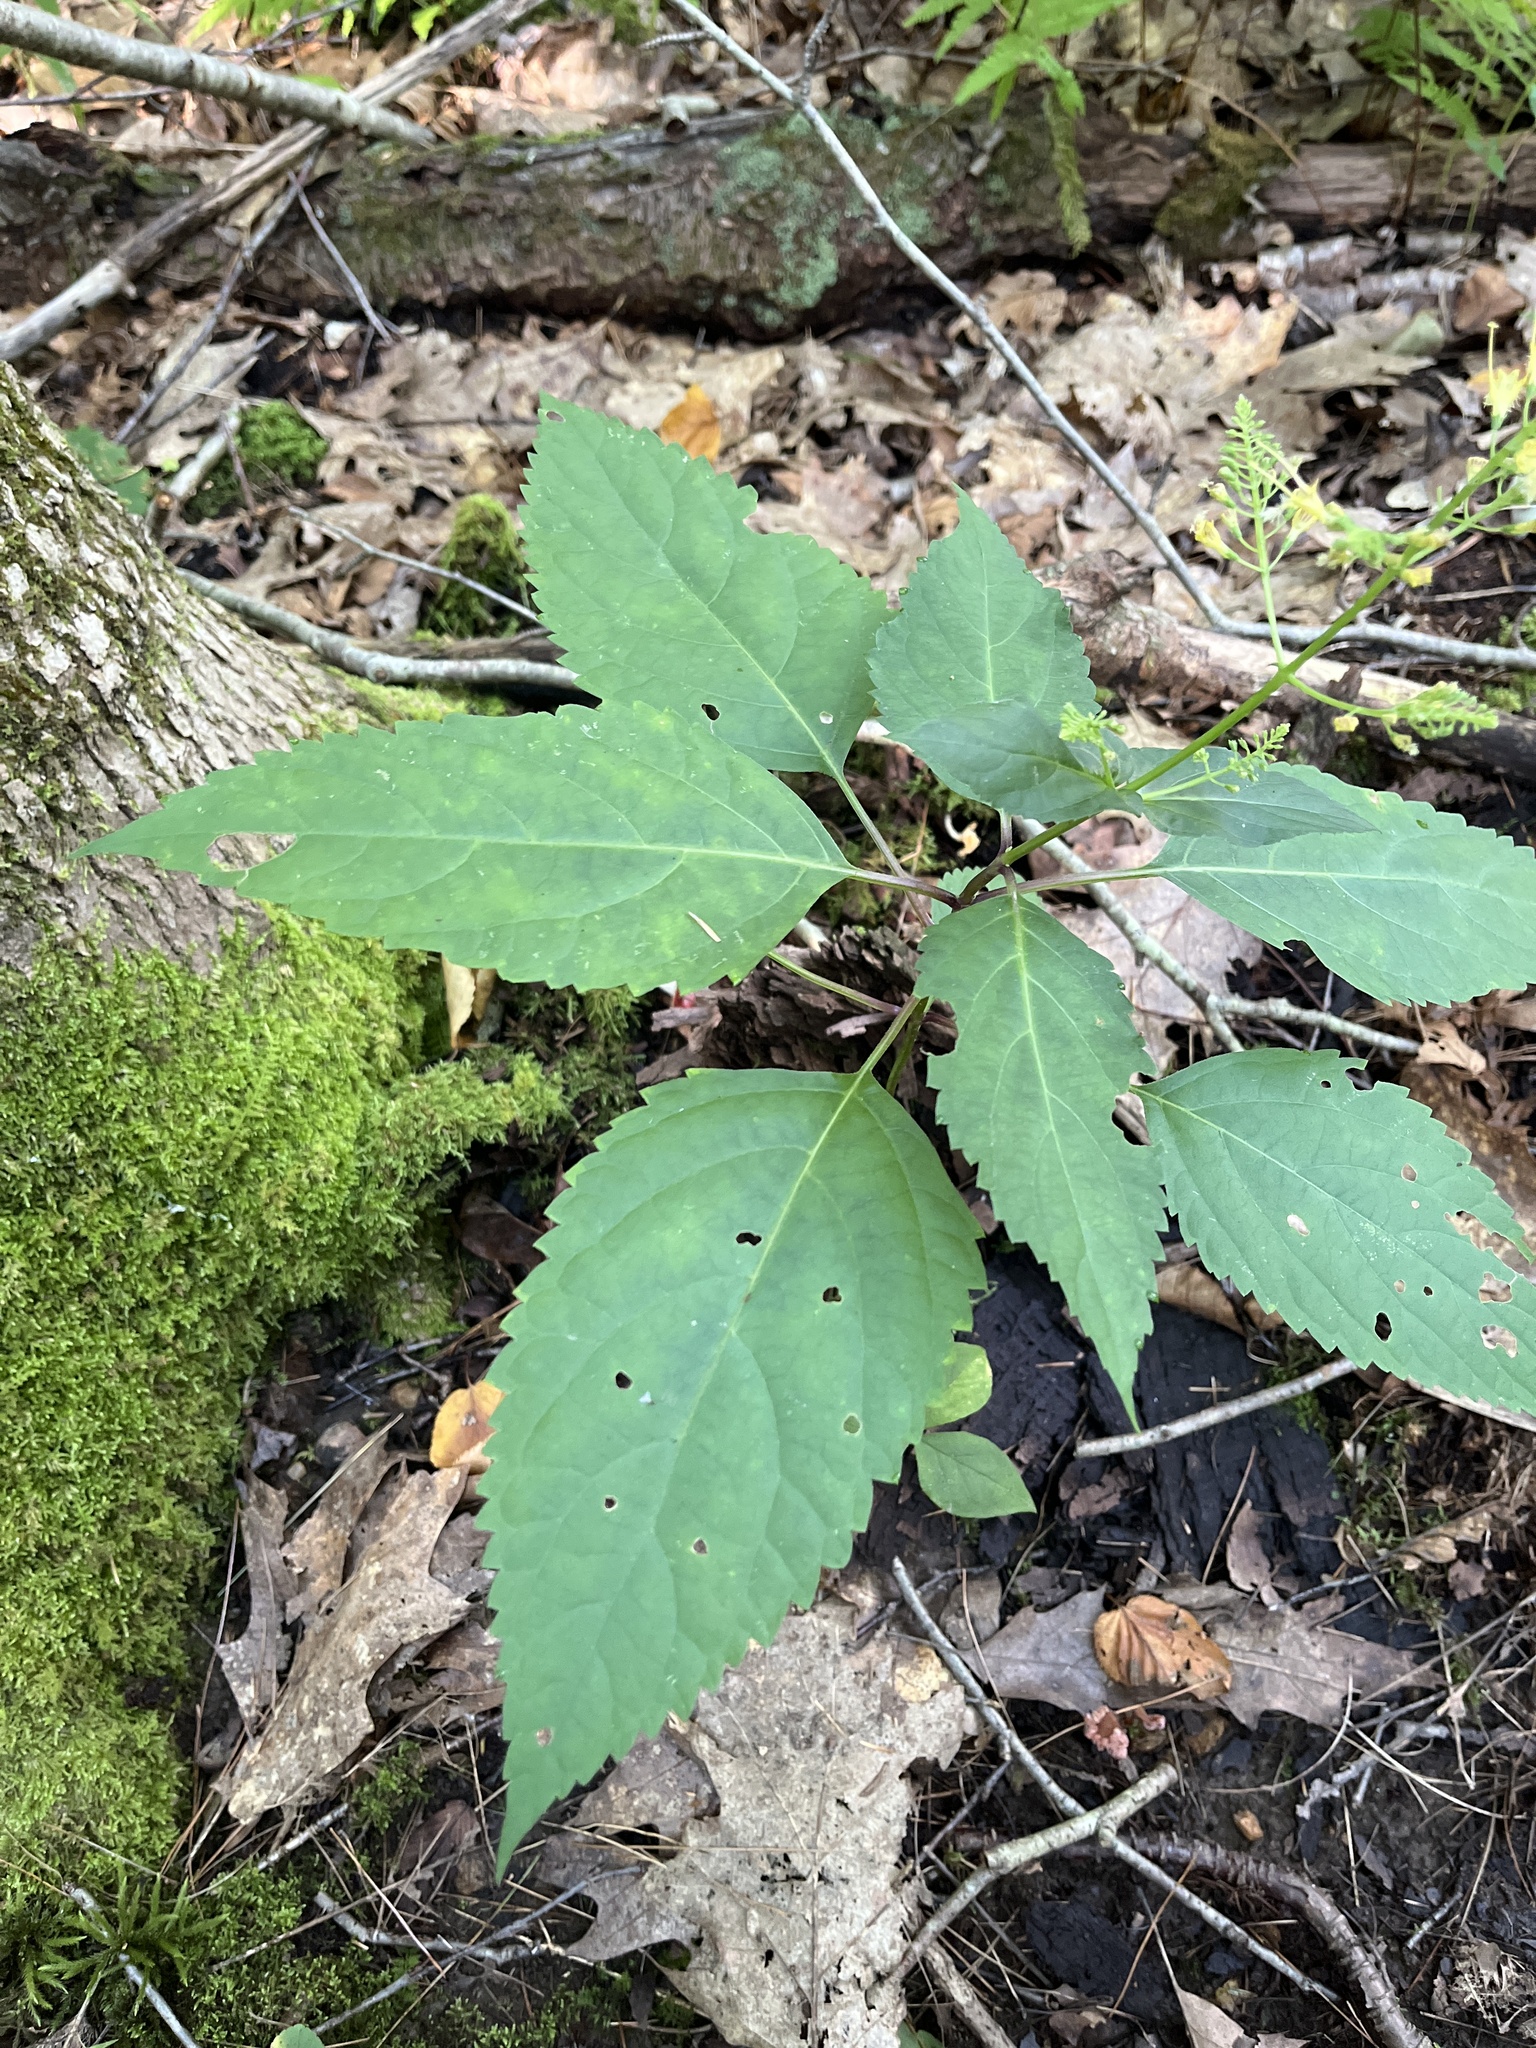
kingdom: Plantae
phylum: Tracheophyta
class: Magnoliopsida
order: Lamiales
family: Lamiaceae
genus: Collinsonia
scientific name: Collinsonia canadensis
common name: Northern horsebalm
